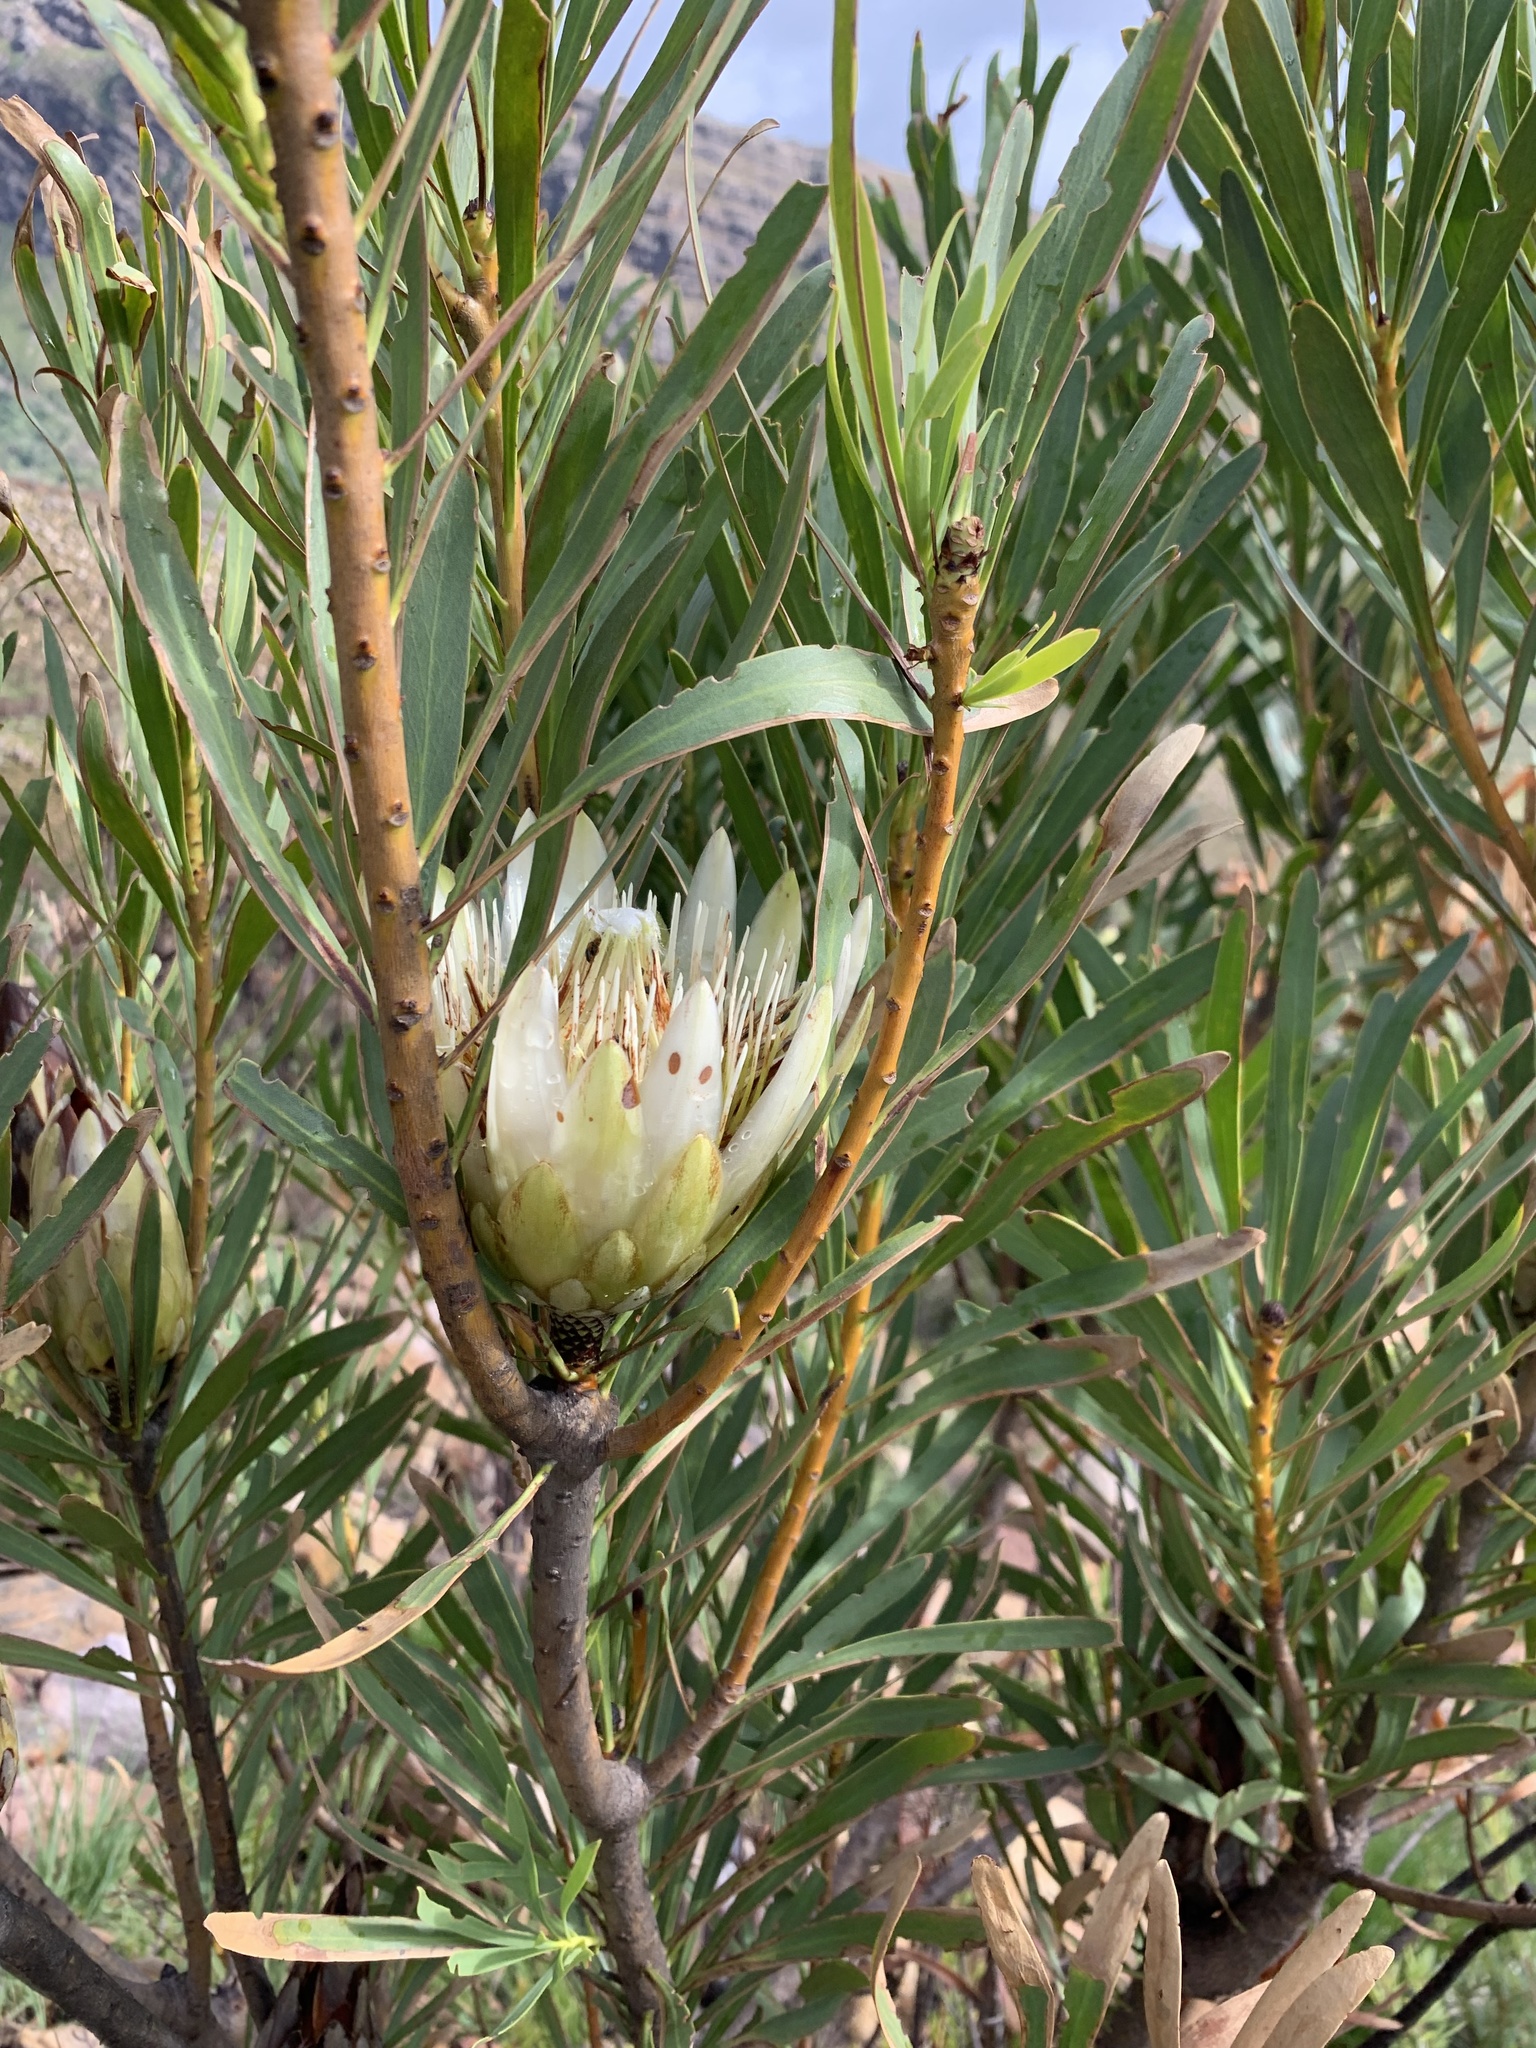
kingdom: Plantae
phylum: Tracheophyta
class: Magnoliopsida
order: Proteales
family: Proteaceae
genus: Protea
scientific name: Protea repens
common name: Sugarbush
